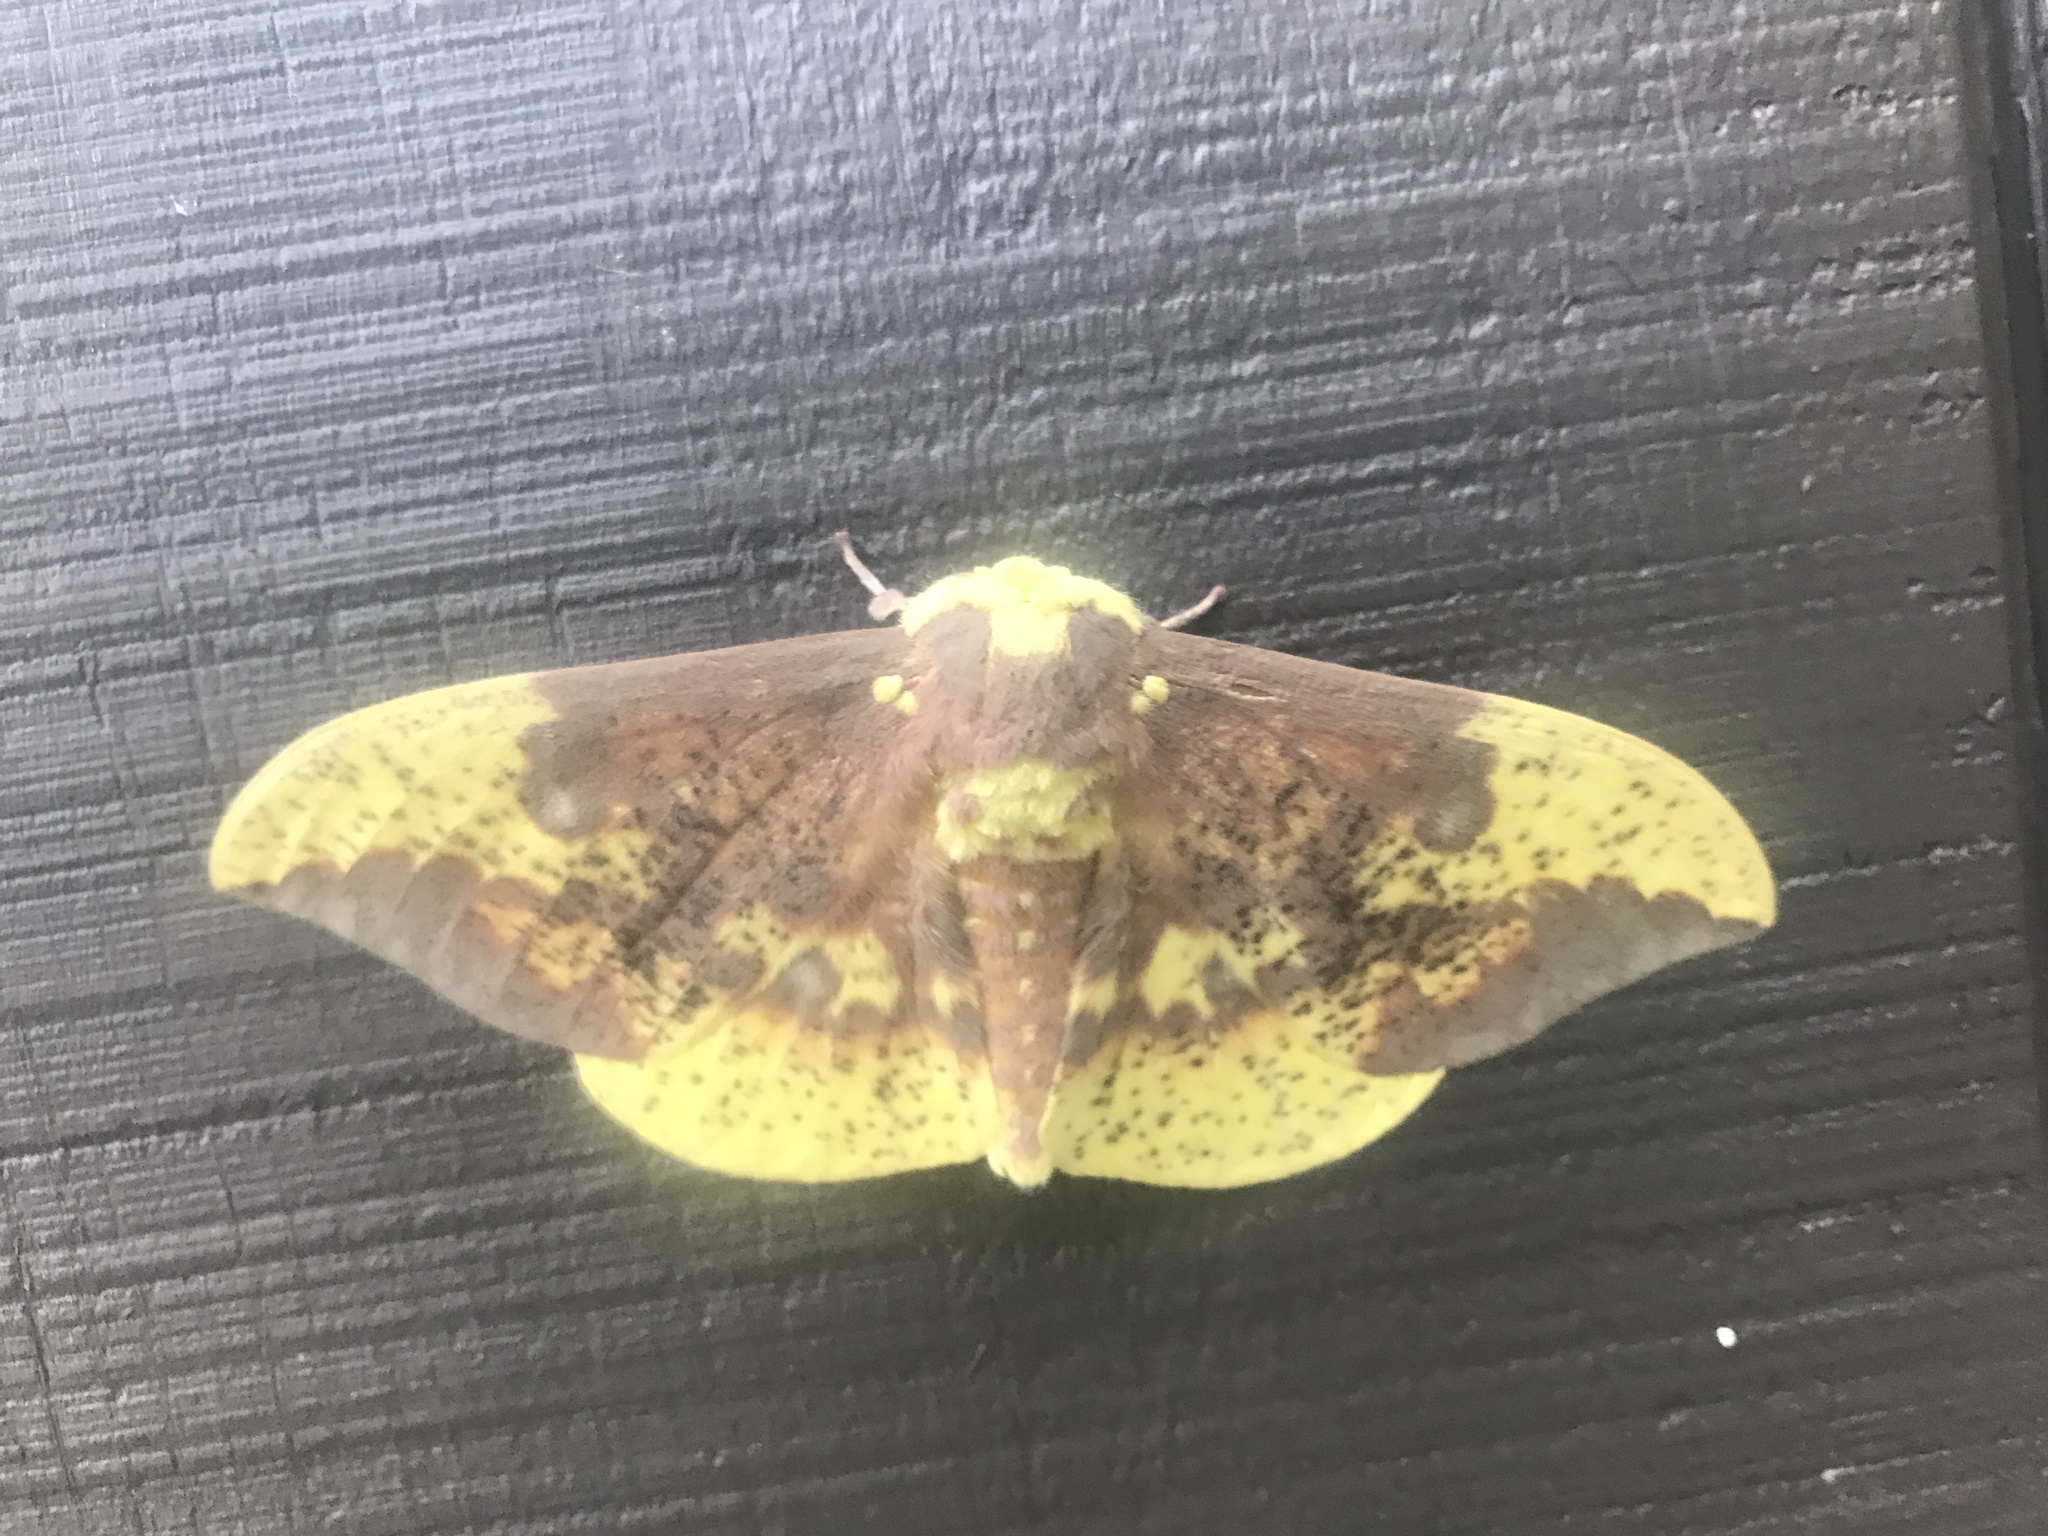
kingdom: Animalia
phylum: Arthropoda
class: Insecta
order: Lepidoptera
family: Saturniidae
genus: Eacles
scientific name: Eacles imperialis
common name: Imperial moth
